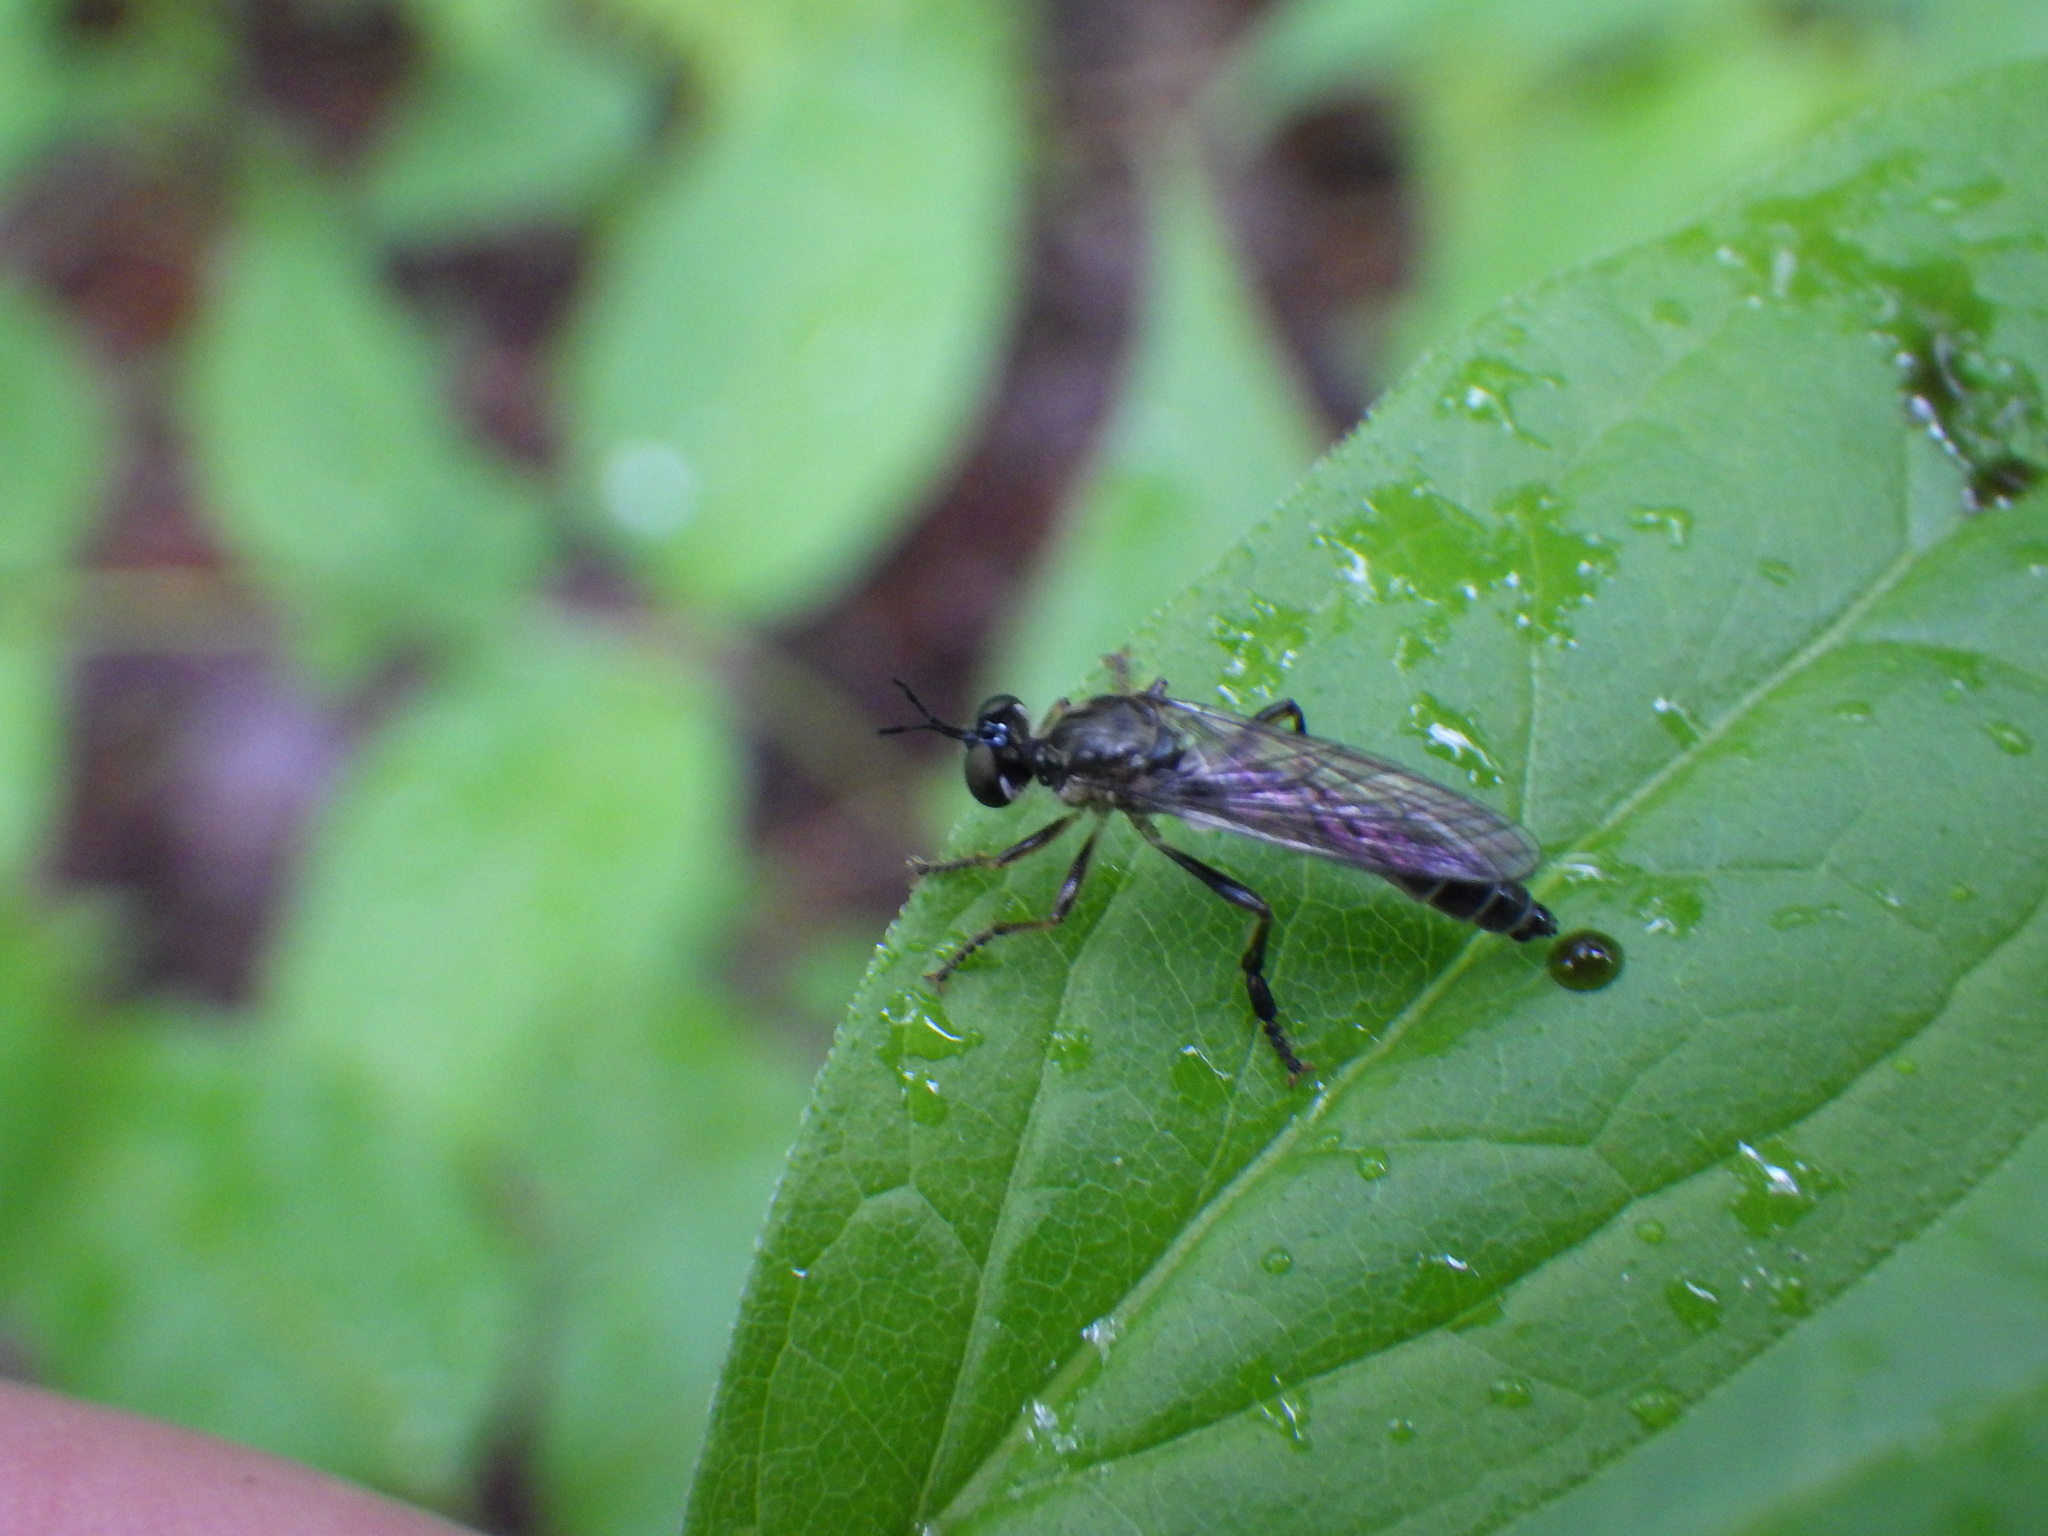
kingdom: Animalia
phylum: Arthropoda
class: Insecta
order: Diptera
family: Asilidae
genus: Dioctria
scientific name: Dioctria hyalipennis
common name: Stripe-legged robberfly
